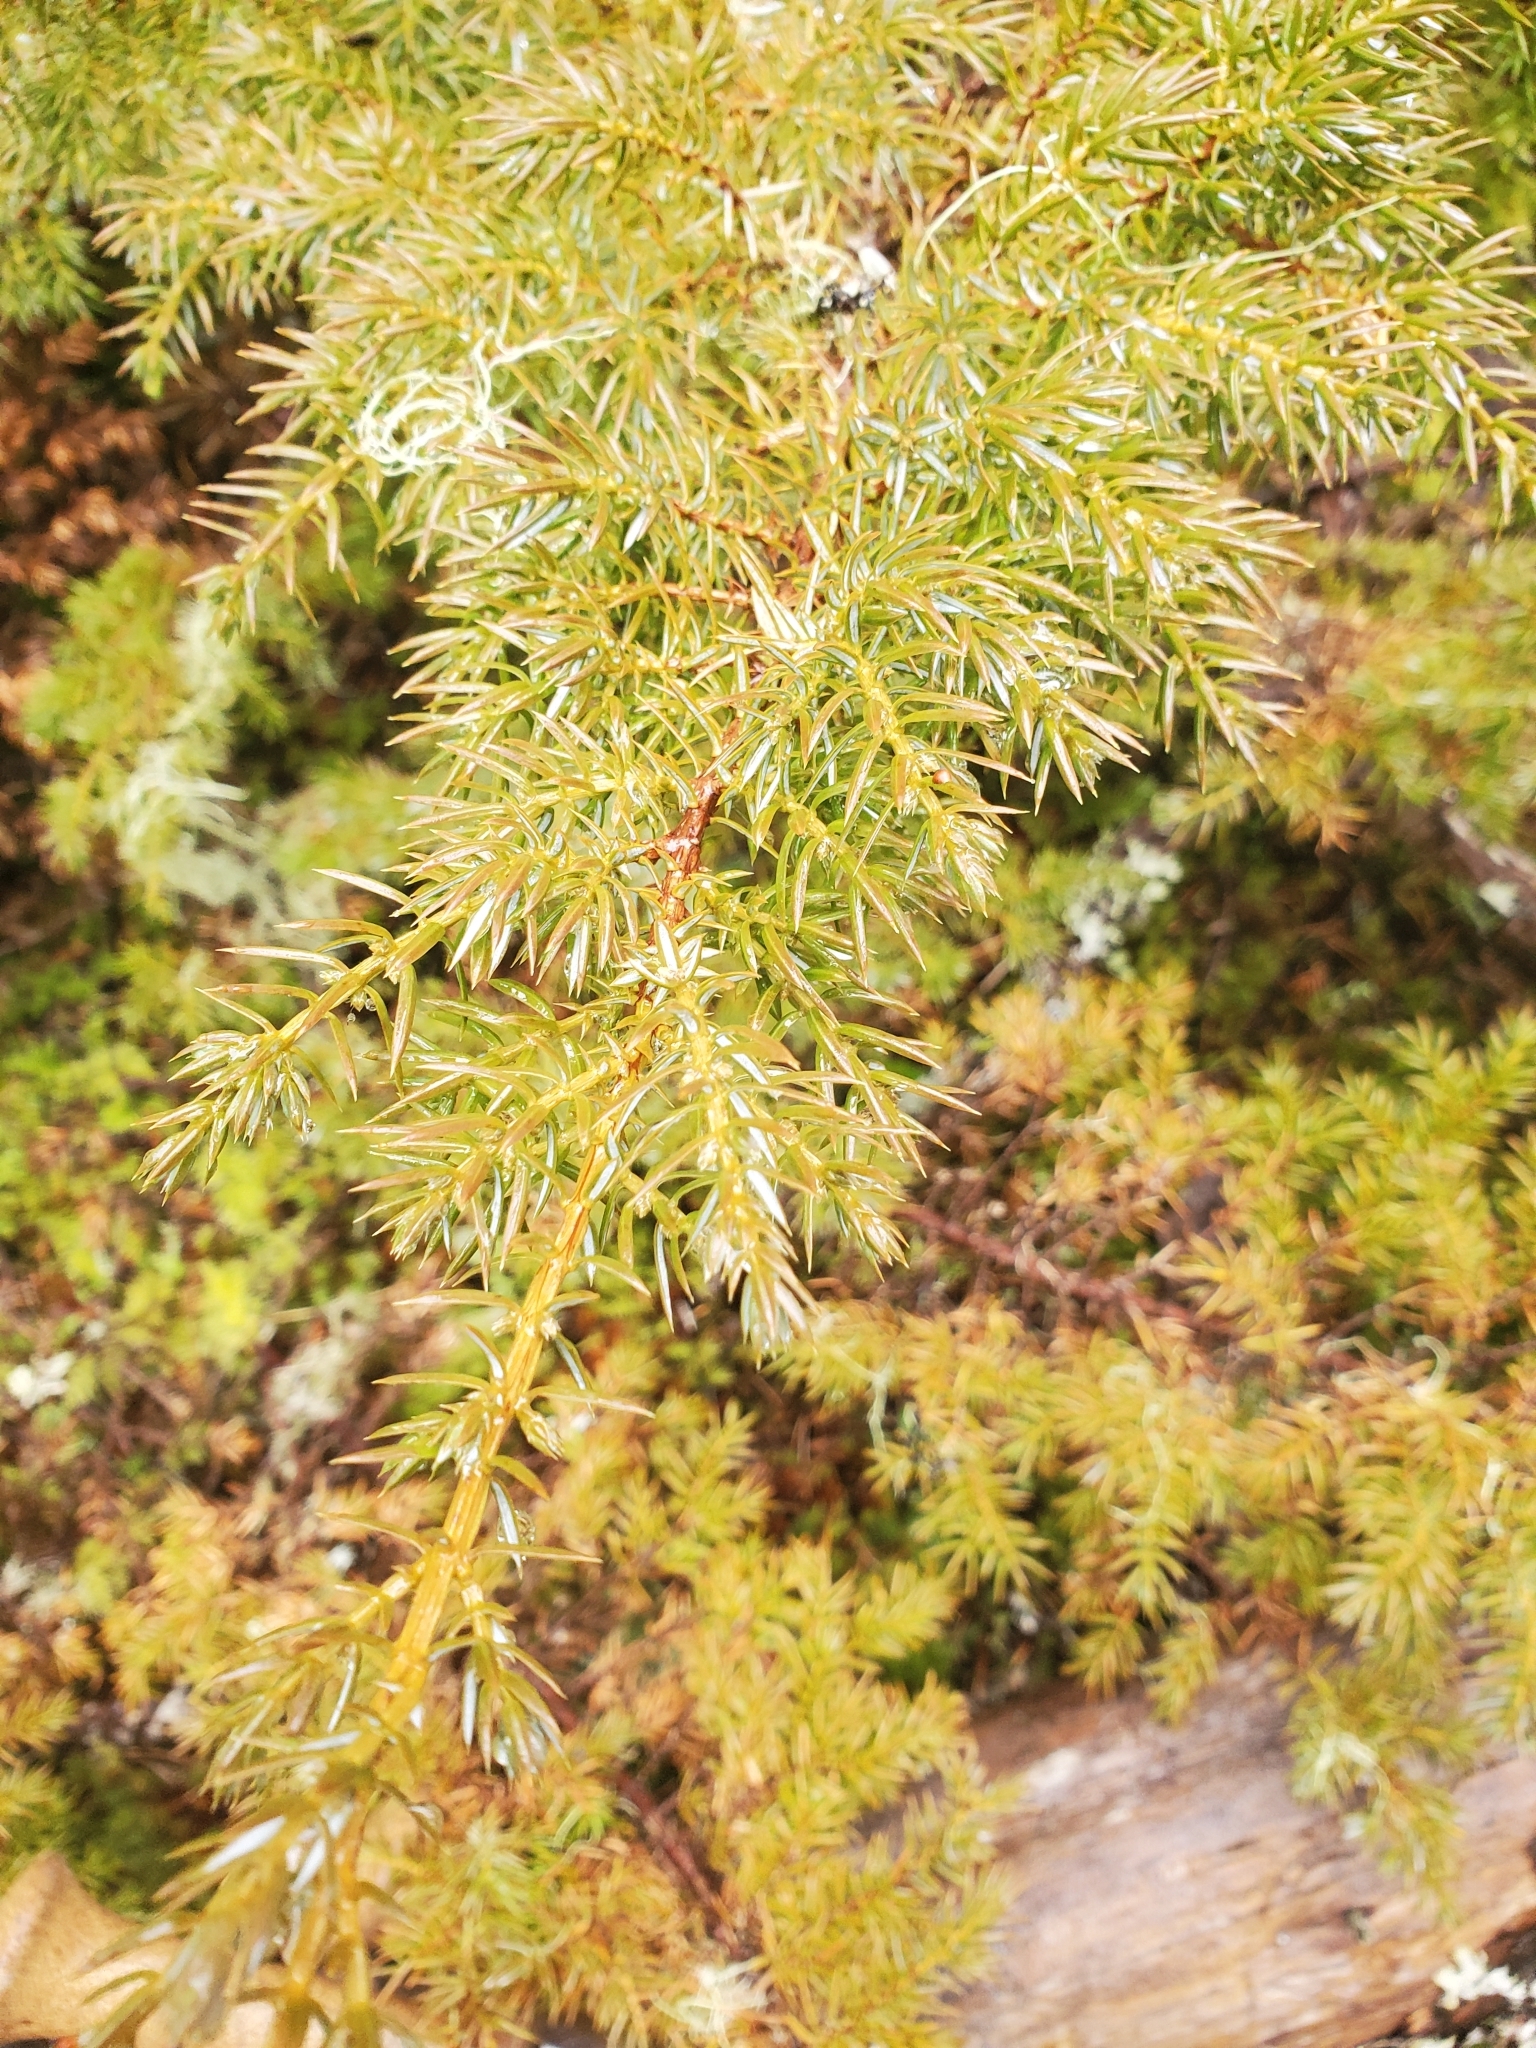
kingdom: Plantae
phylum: Tracheophyta
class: Pinopsida
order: Pinales
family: Cupressaceae
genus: Juniperus
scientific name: Juniperus communis
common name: Common juniper
